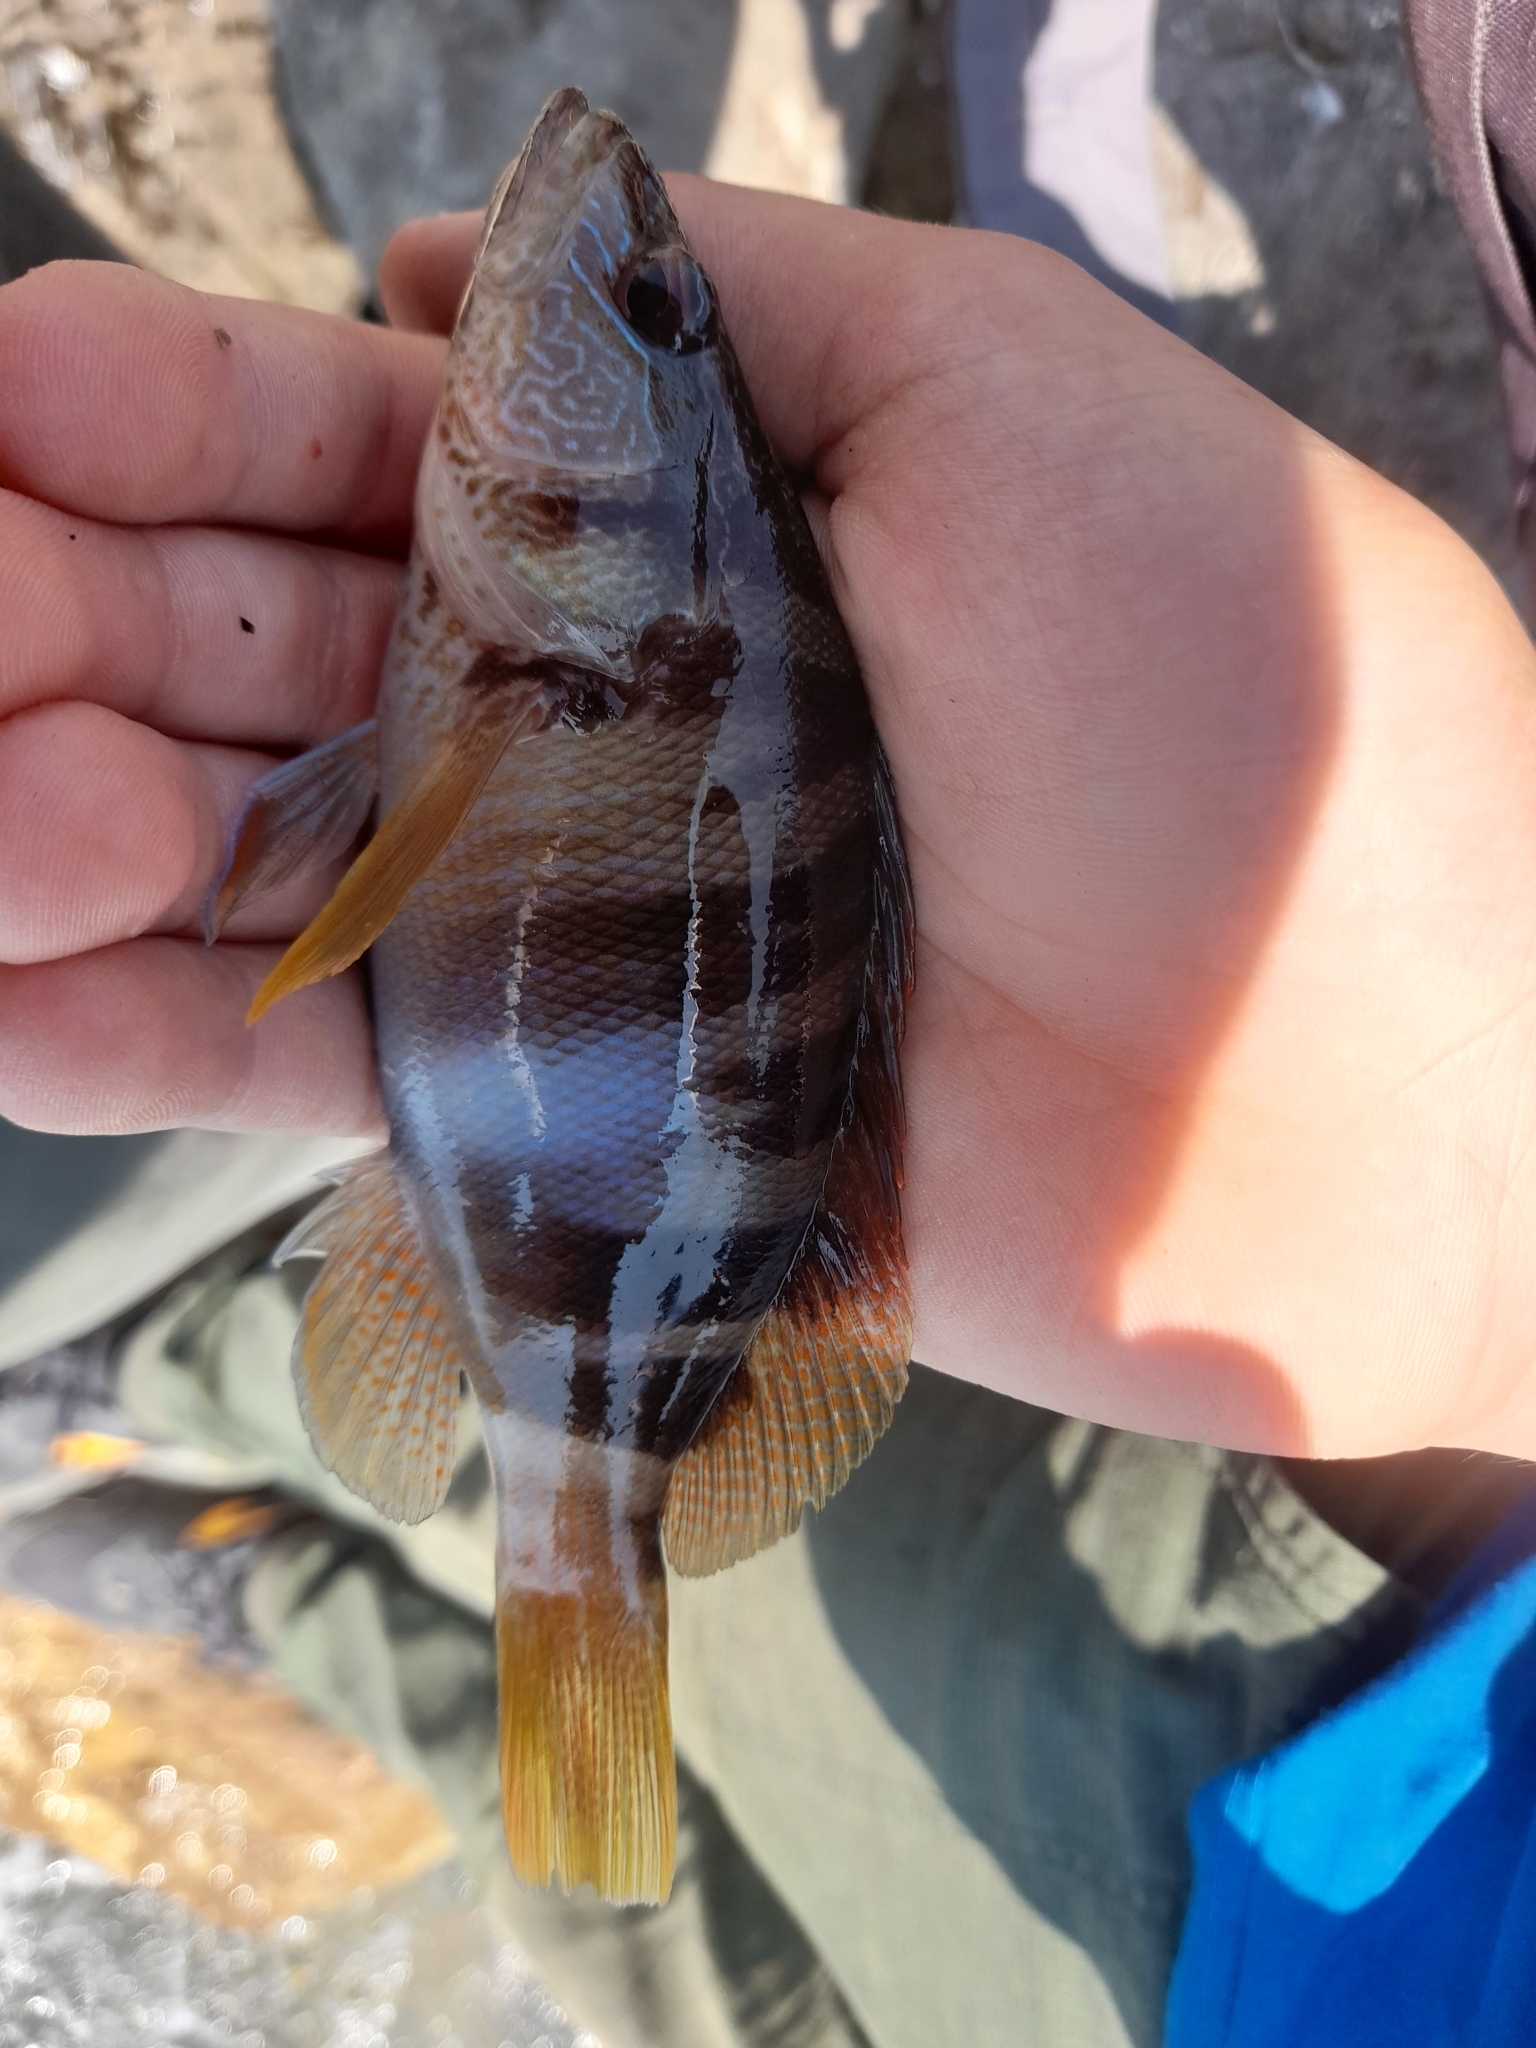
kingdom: Animalia
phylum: Chordata
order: Perciformes
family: Serranidae
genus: Serranus
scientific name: Serranus scriba
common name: Painted comber
